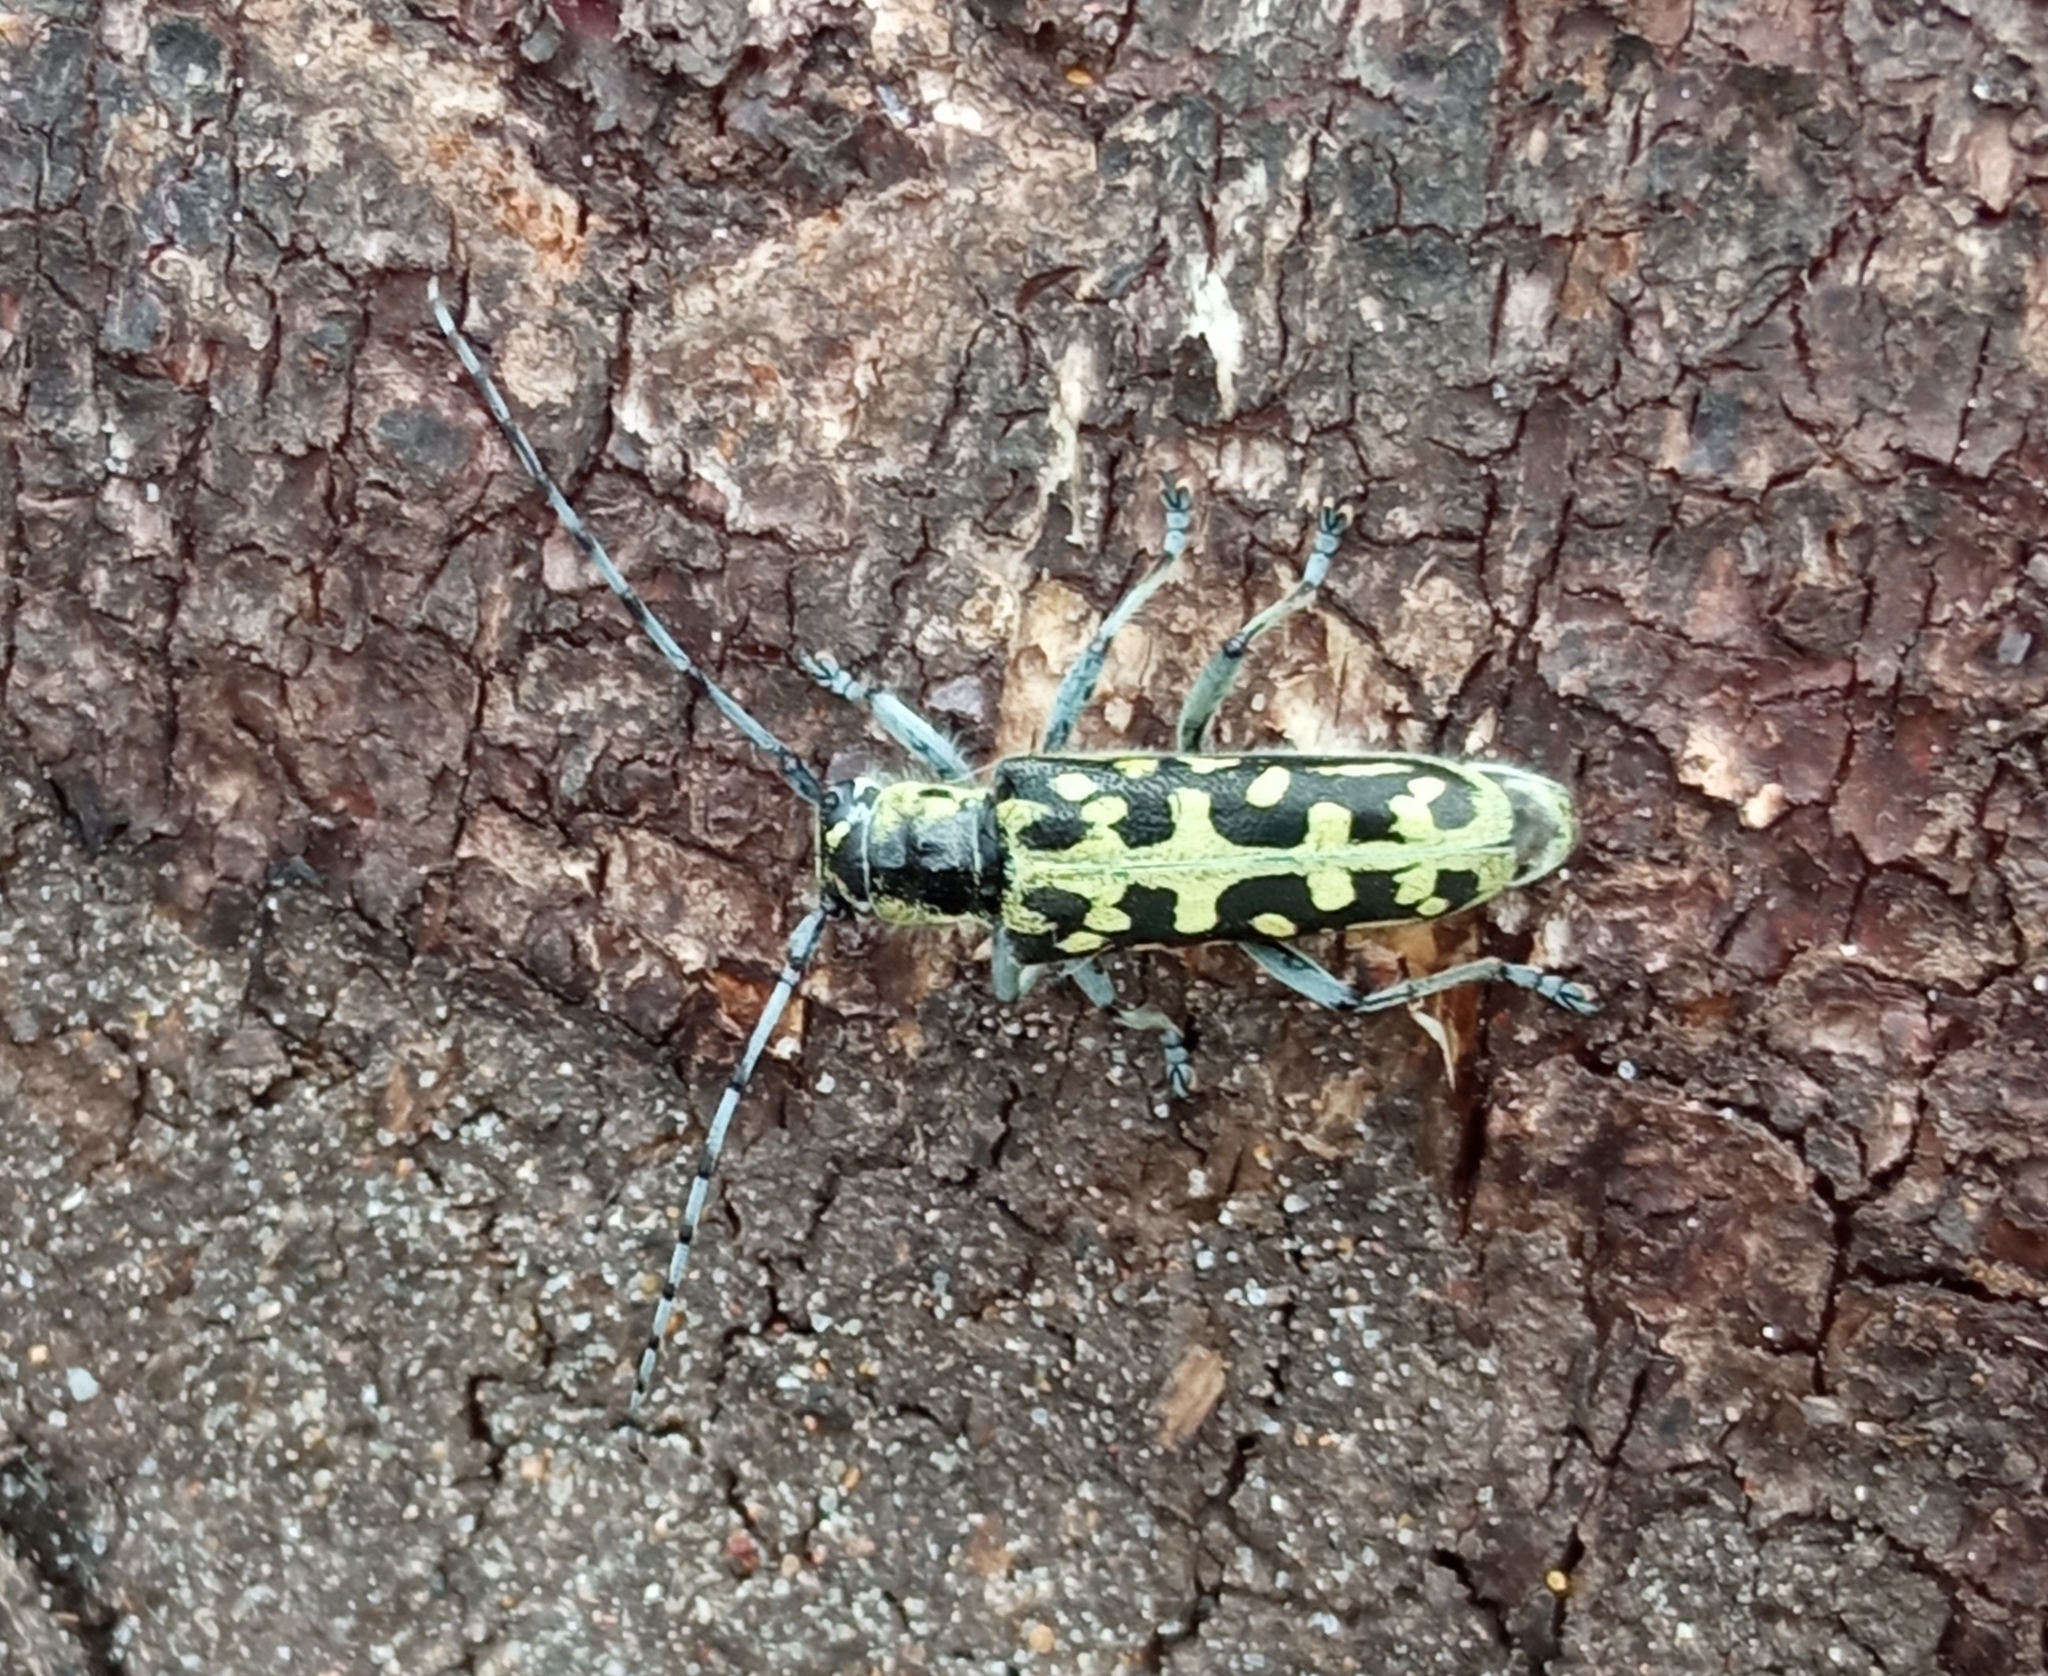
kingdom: Animalia
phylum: Arthropoda
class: Insecta
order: Coleoptera
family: Cerambycidae
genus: Saperda
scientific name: Saperda scalaris
